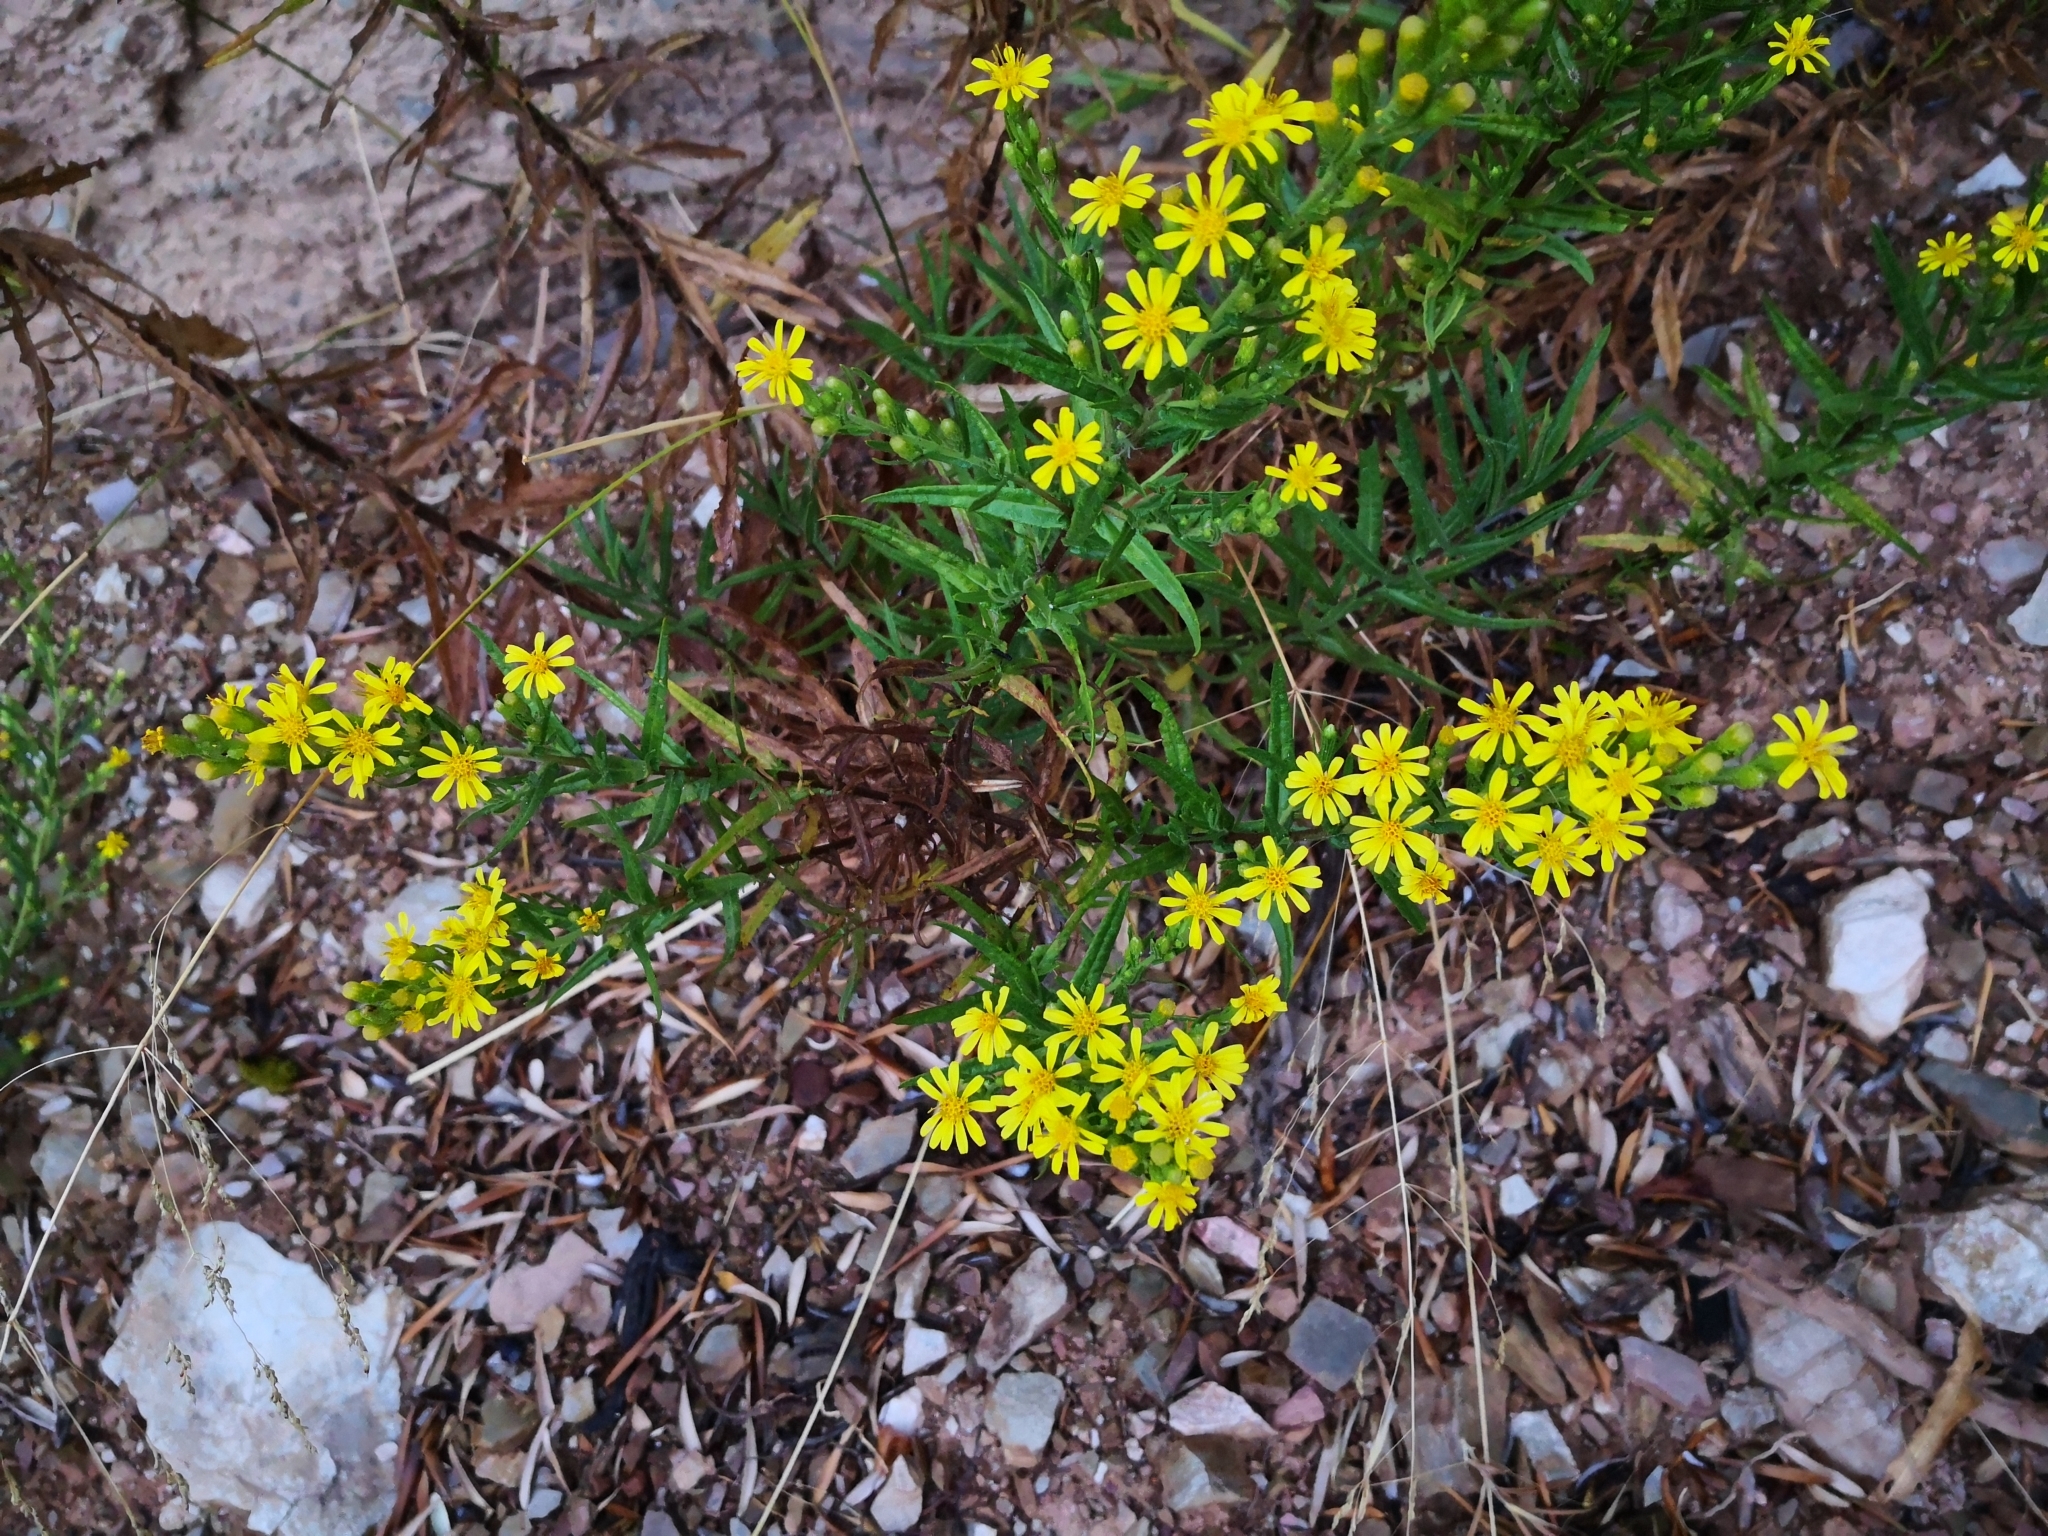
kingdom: Plantae
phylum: Tracheophyta
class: Magnoliopsida
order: Asterales
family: Asteraceae
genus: Dittrichia
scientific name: Dittrichia viscosa
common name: Woody fleabane
